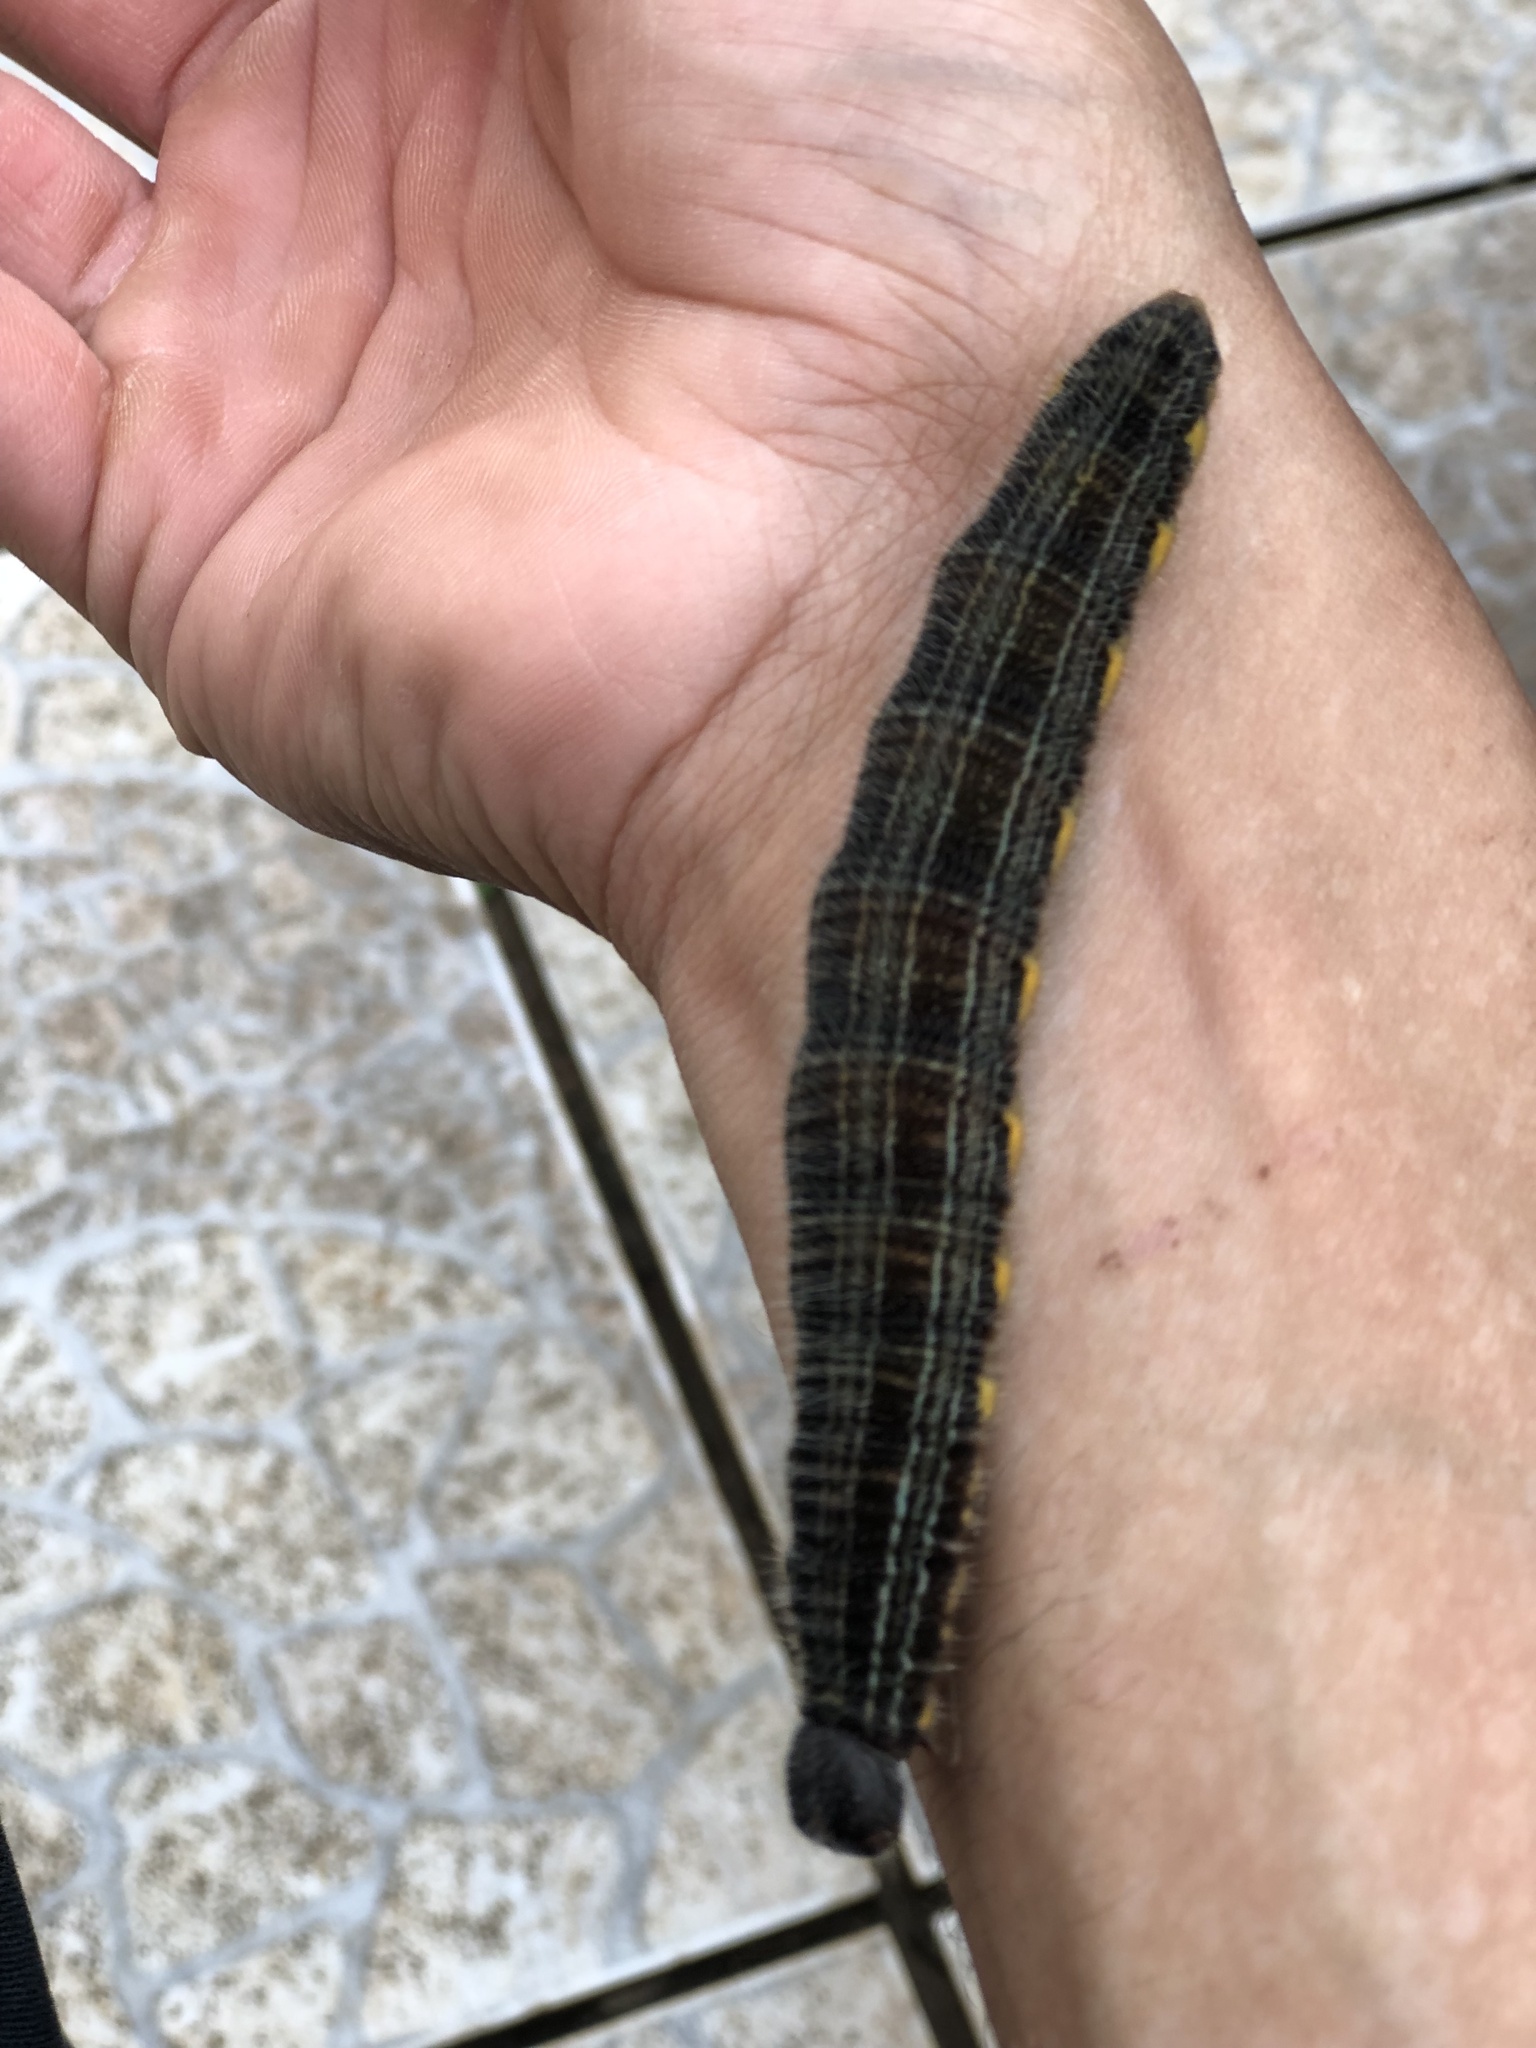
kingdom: Animalia
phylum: Arthropoda
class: Insecta
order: Lepidoptera
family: Nymphalidae
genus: Brassolis
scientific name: Brassolis sophorae
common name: Coconut caterpillar
